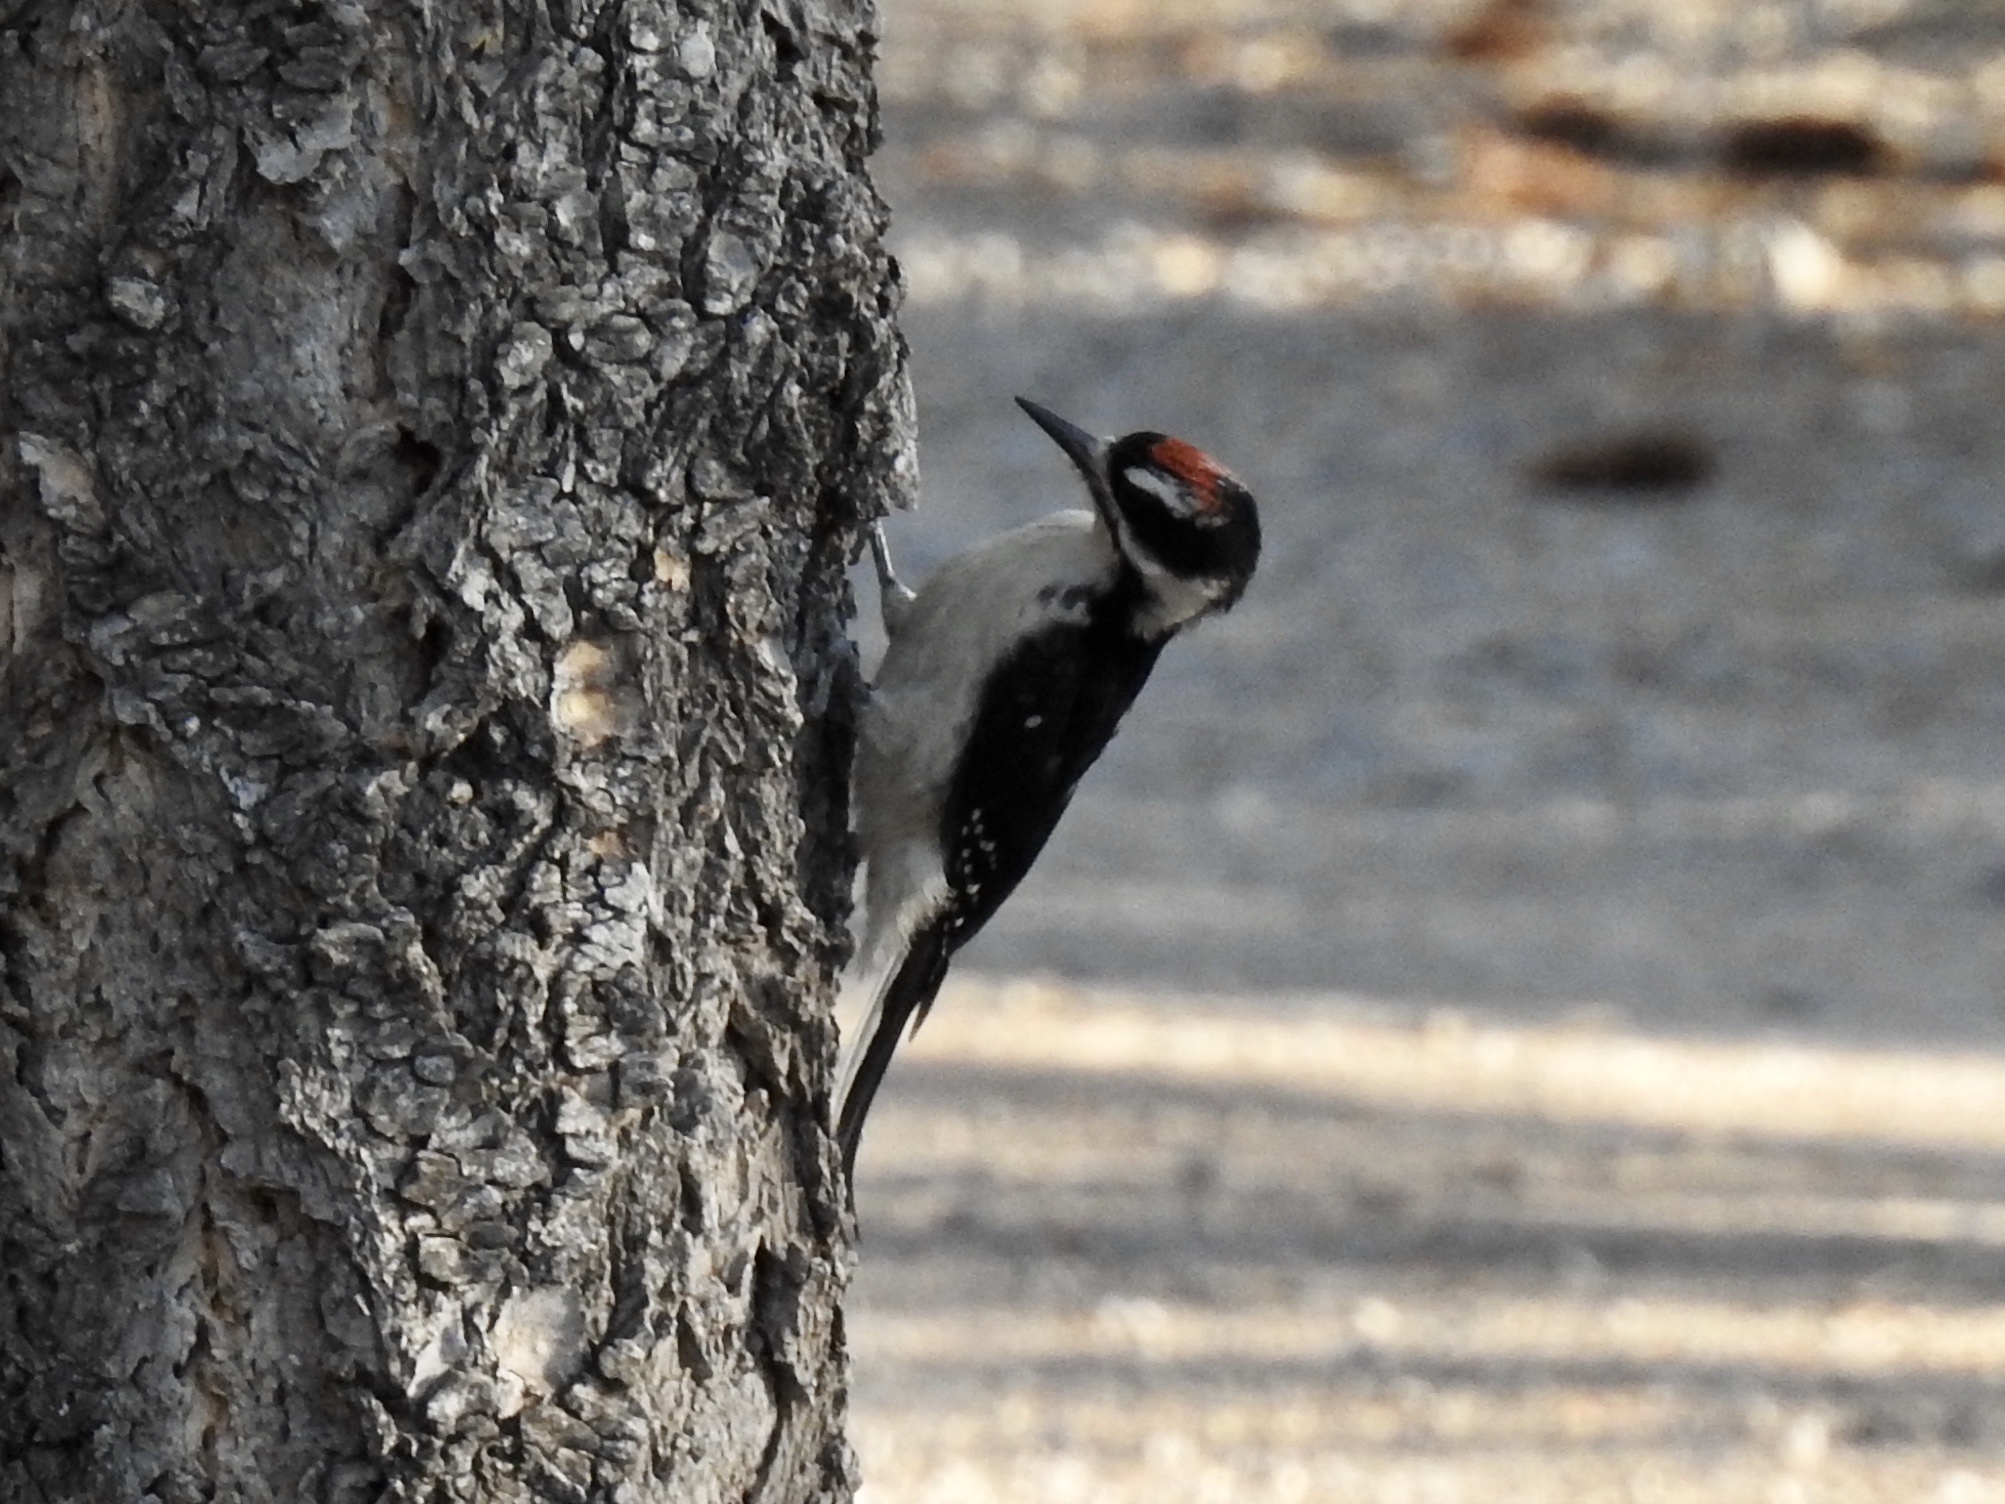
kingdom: Animalia
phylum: Chordata
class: Aves
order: Piciformes
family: Picidae
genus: Leuconotopicus
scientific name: Leuconotopicus villosus
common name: Hairy woodpecker
